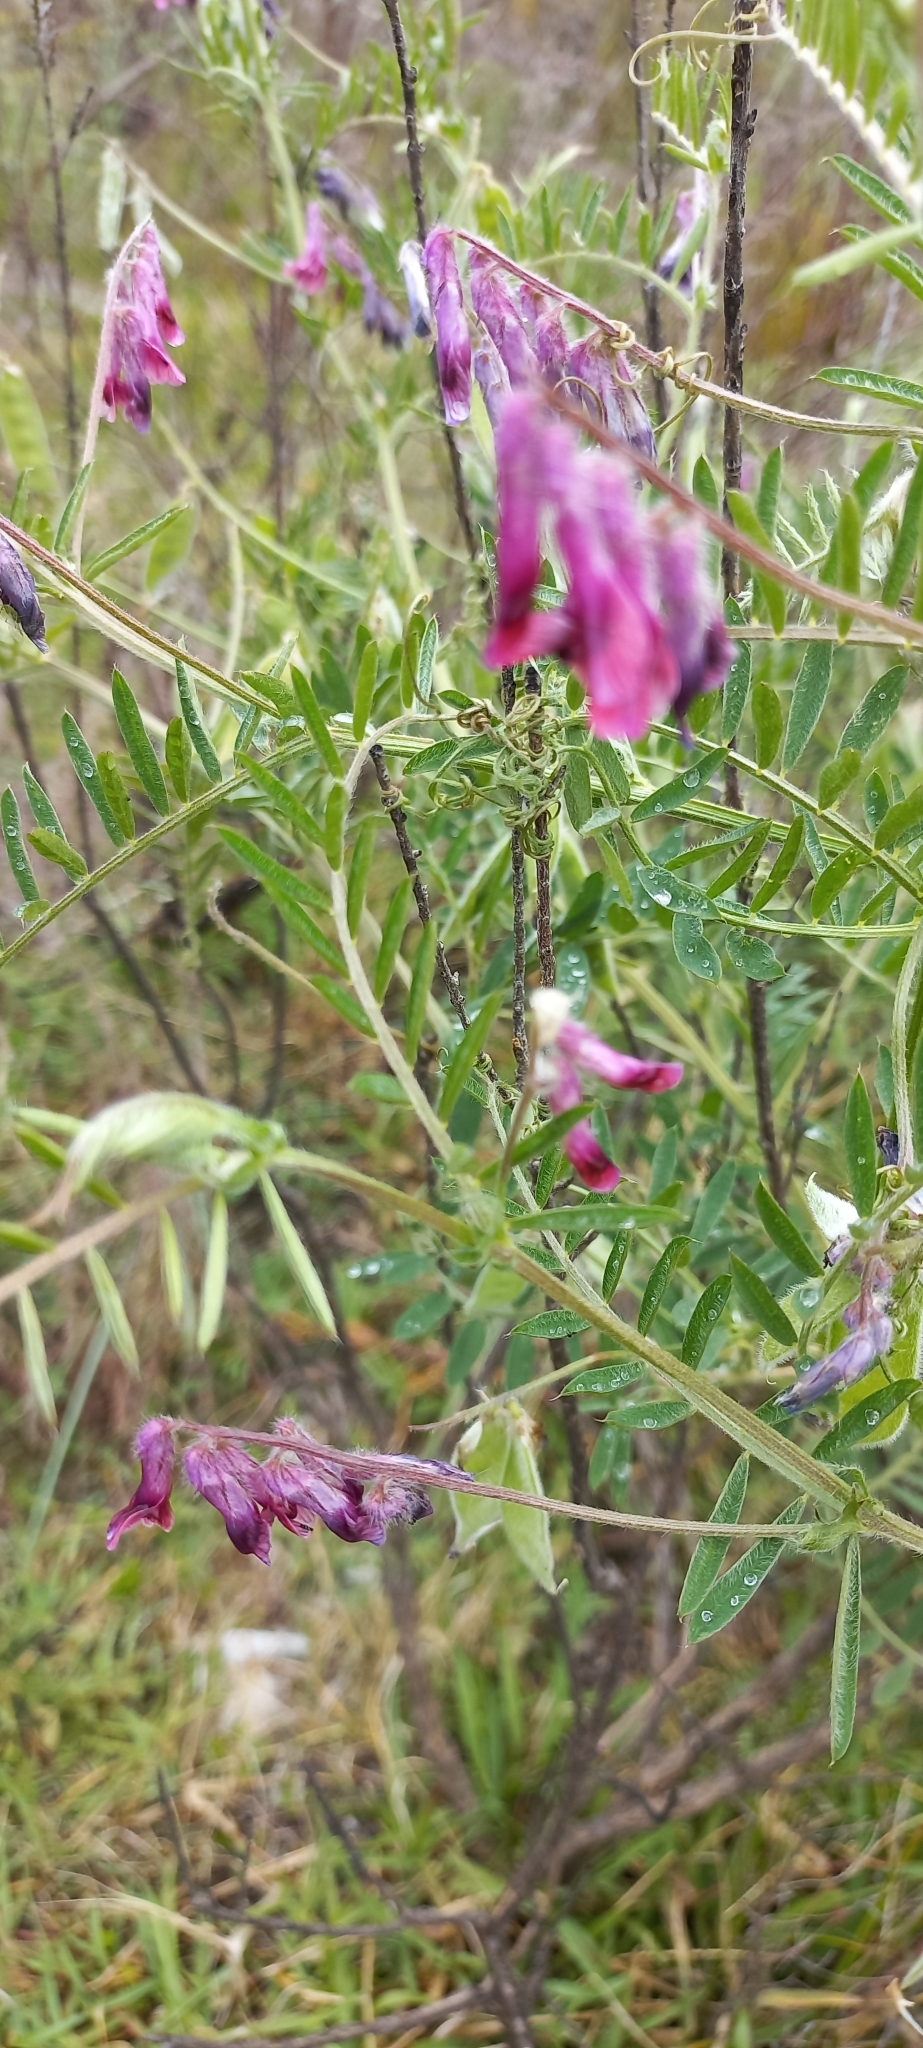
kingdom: Plantae
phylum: Tracheophyta
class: Magnoliopsida
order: Fabales
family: Fabaceae
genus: Vicia
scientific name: Vicia benghalensis
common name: Purple vetch
